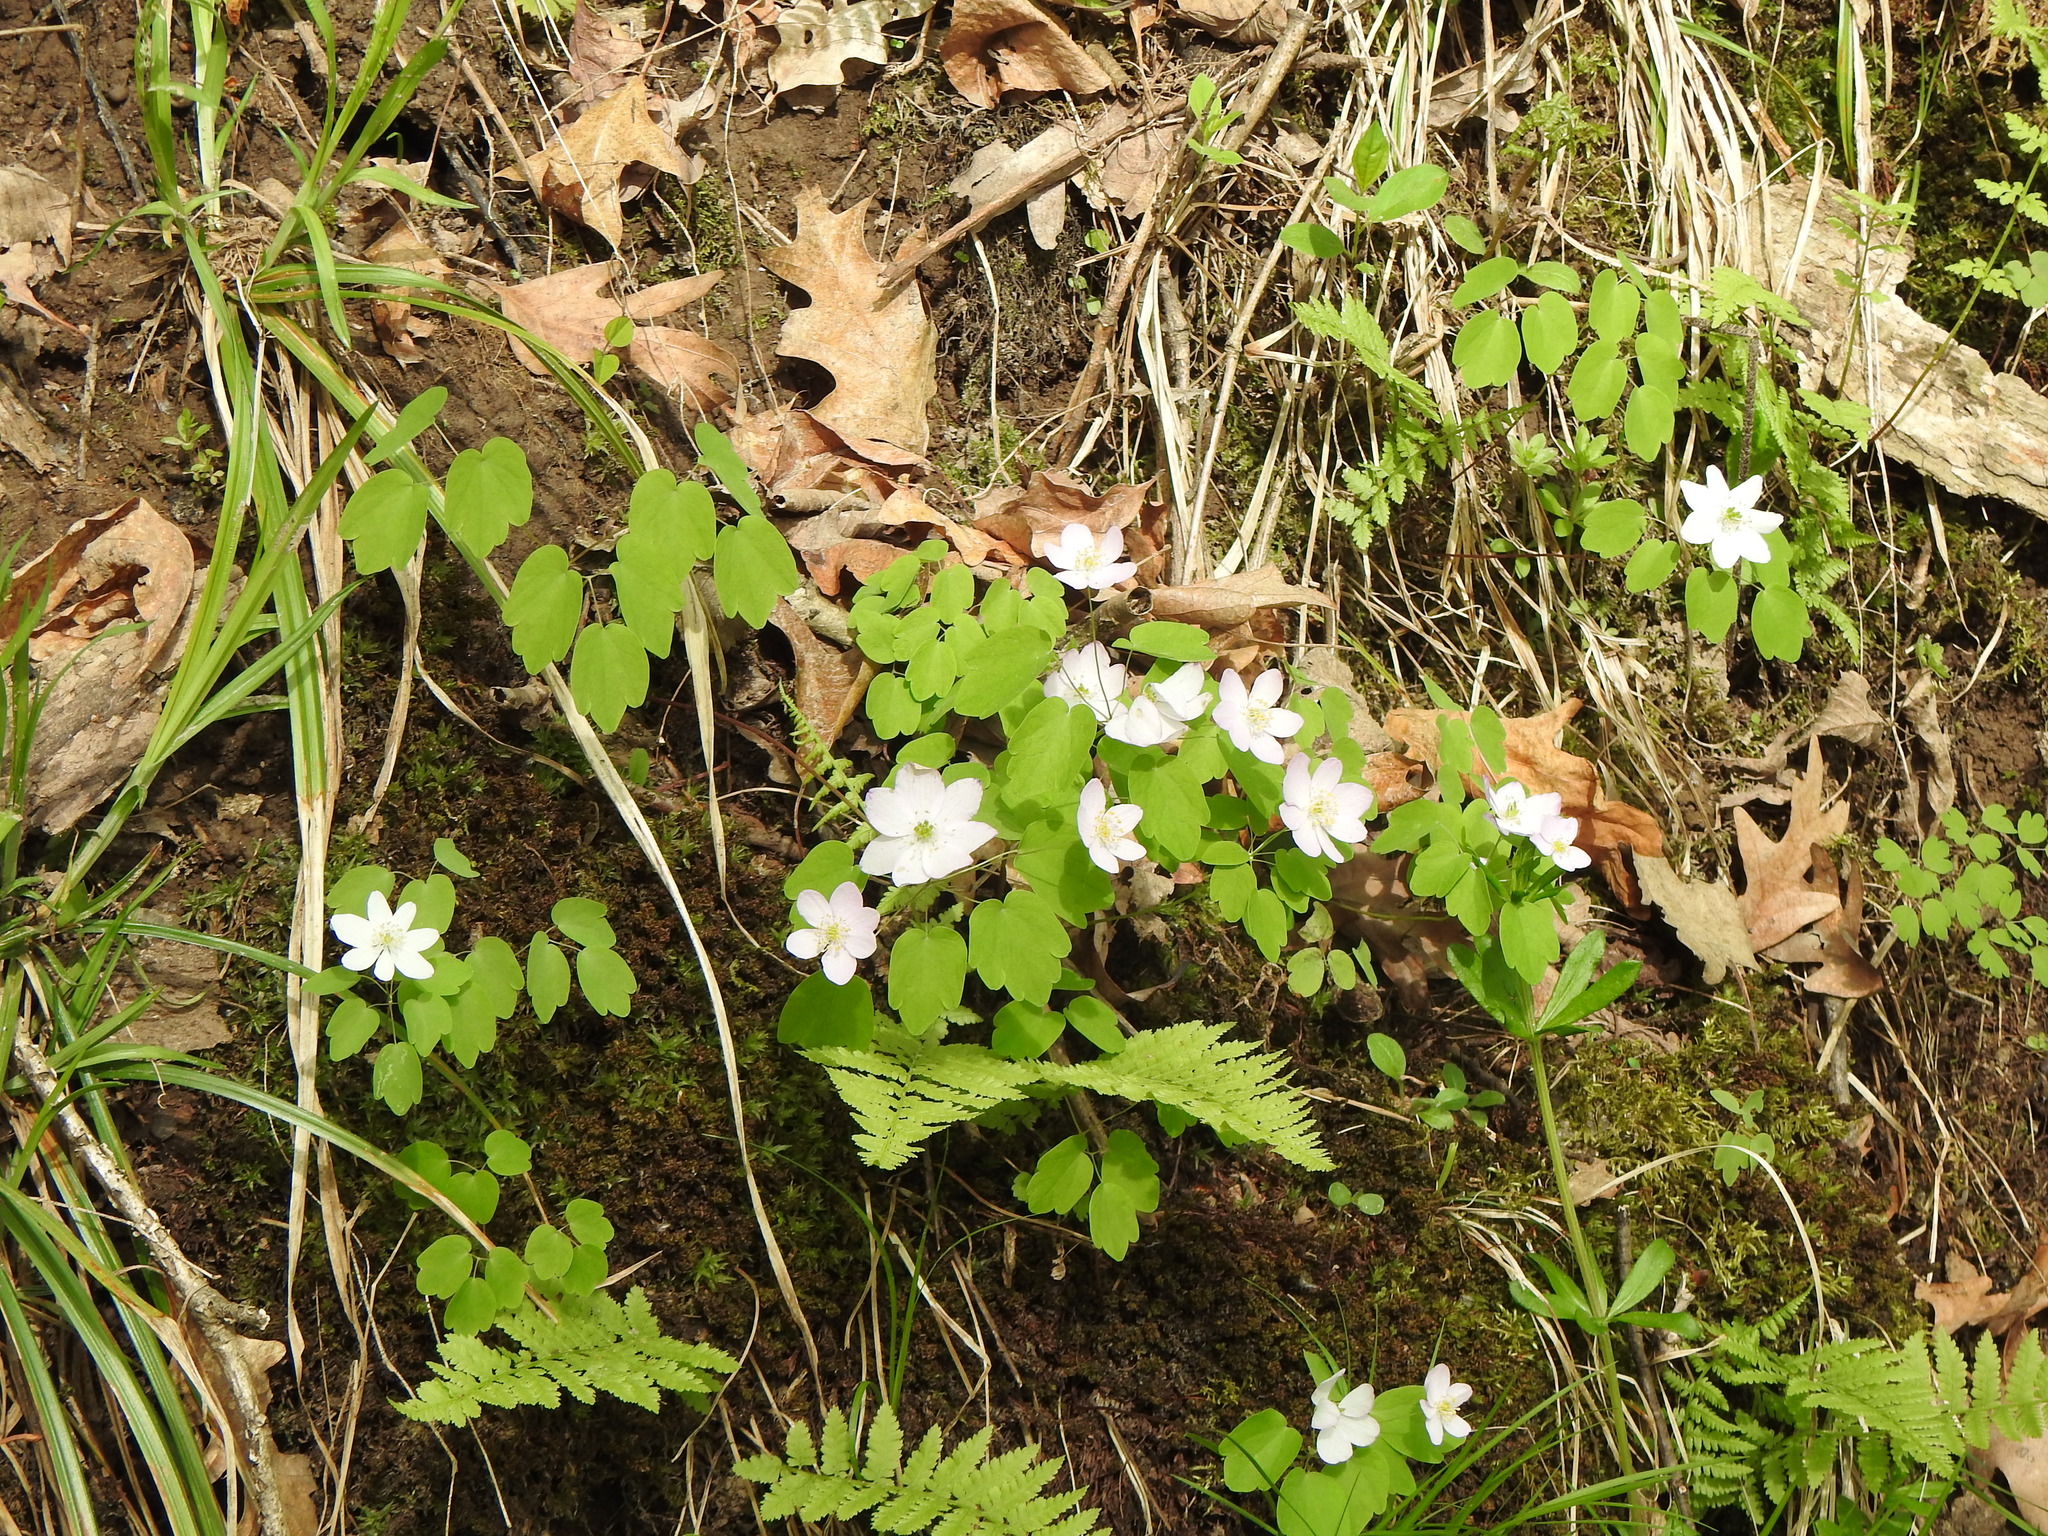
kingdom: Plantae
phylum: Tracheophyta
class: Magnoliopsida
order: Ranunculales
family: Ranunculaceae
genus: Thalictrum
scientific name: Thalictrum thalictroides
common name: Rue-anemone
